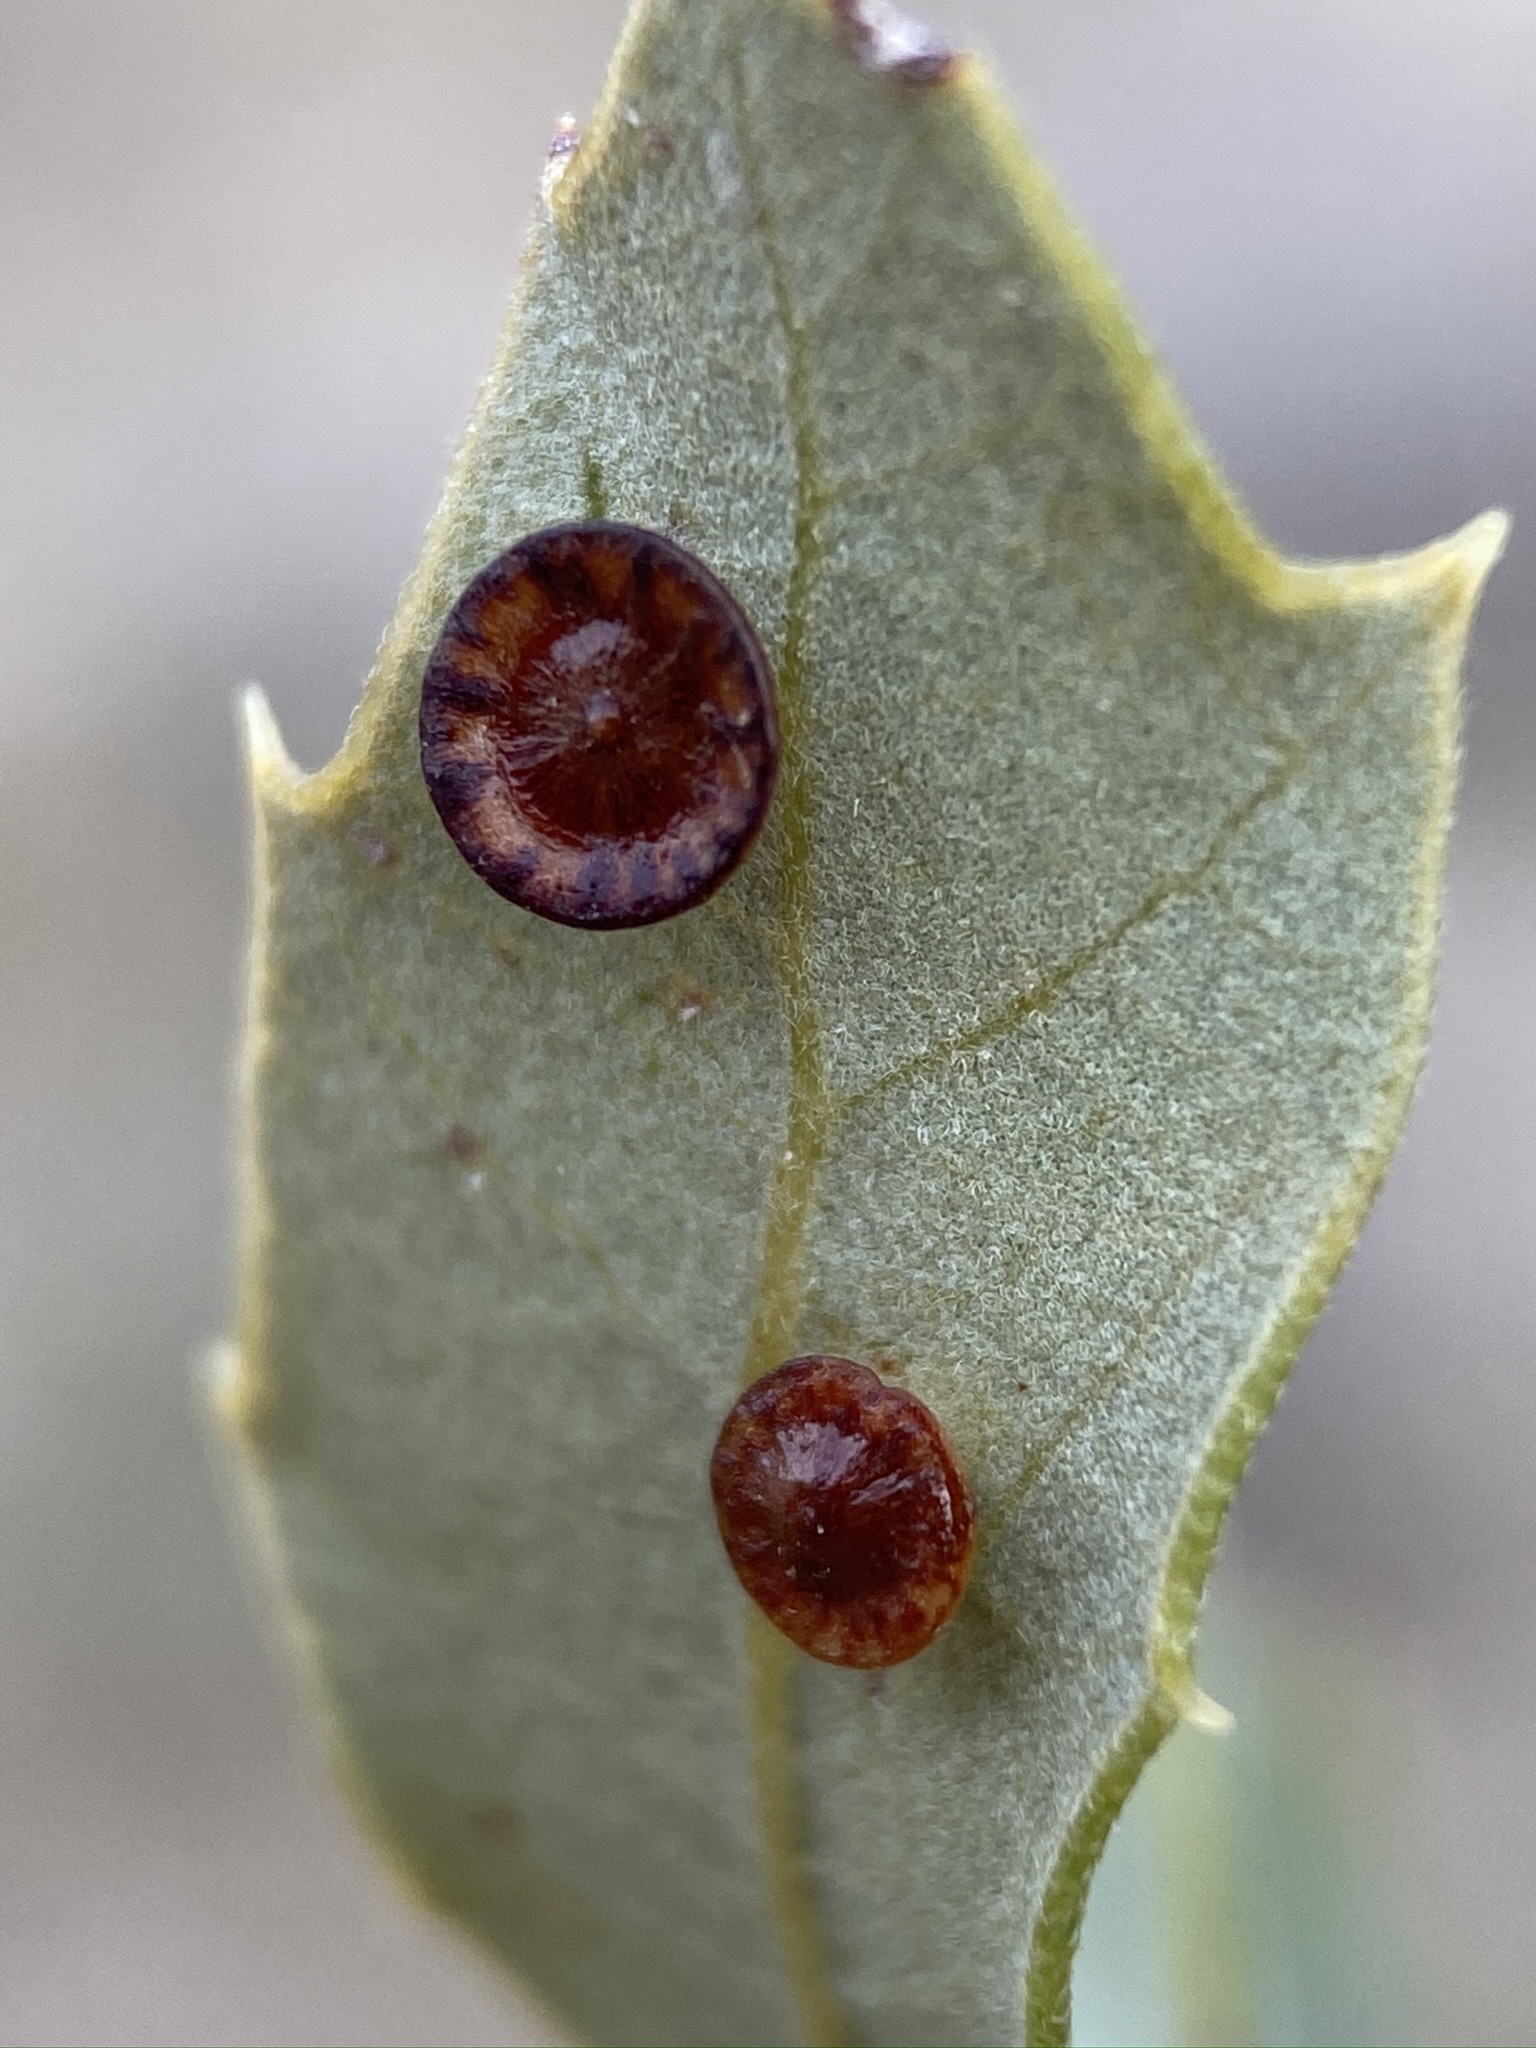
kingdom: Animalia
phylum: Arthropoda
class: Insecta
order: Hymenoptera
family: Cynipidae
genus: Andricus
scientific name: Andricus
